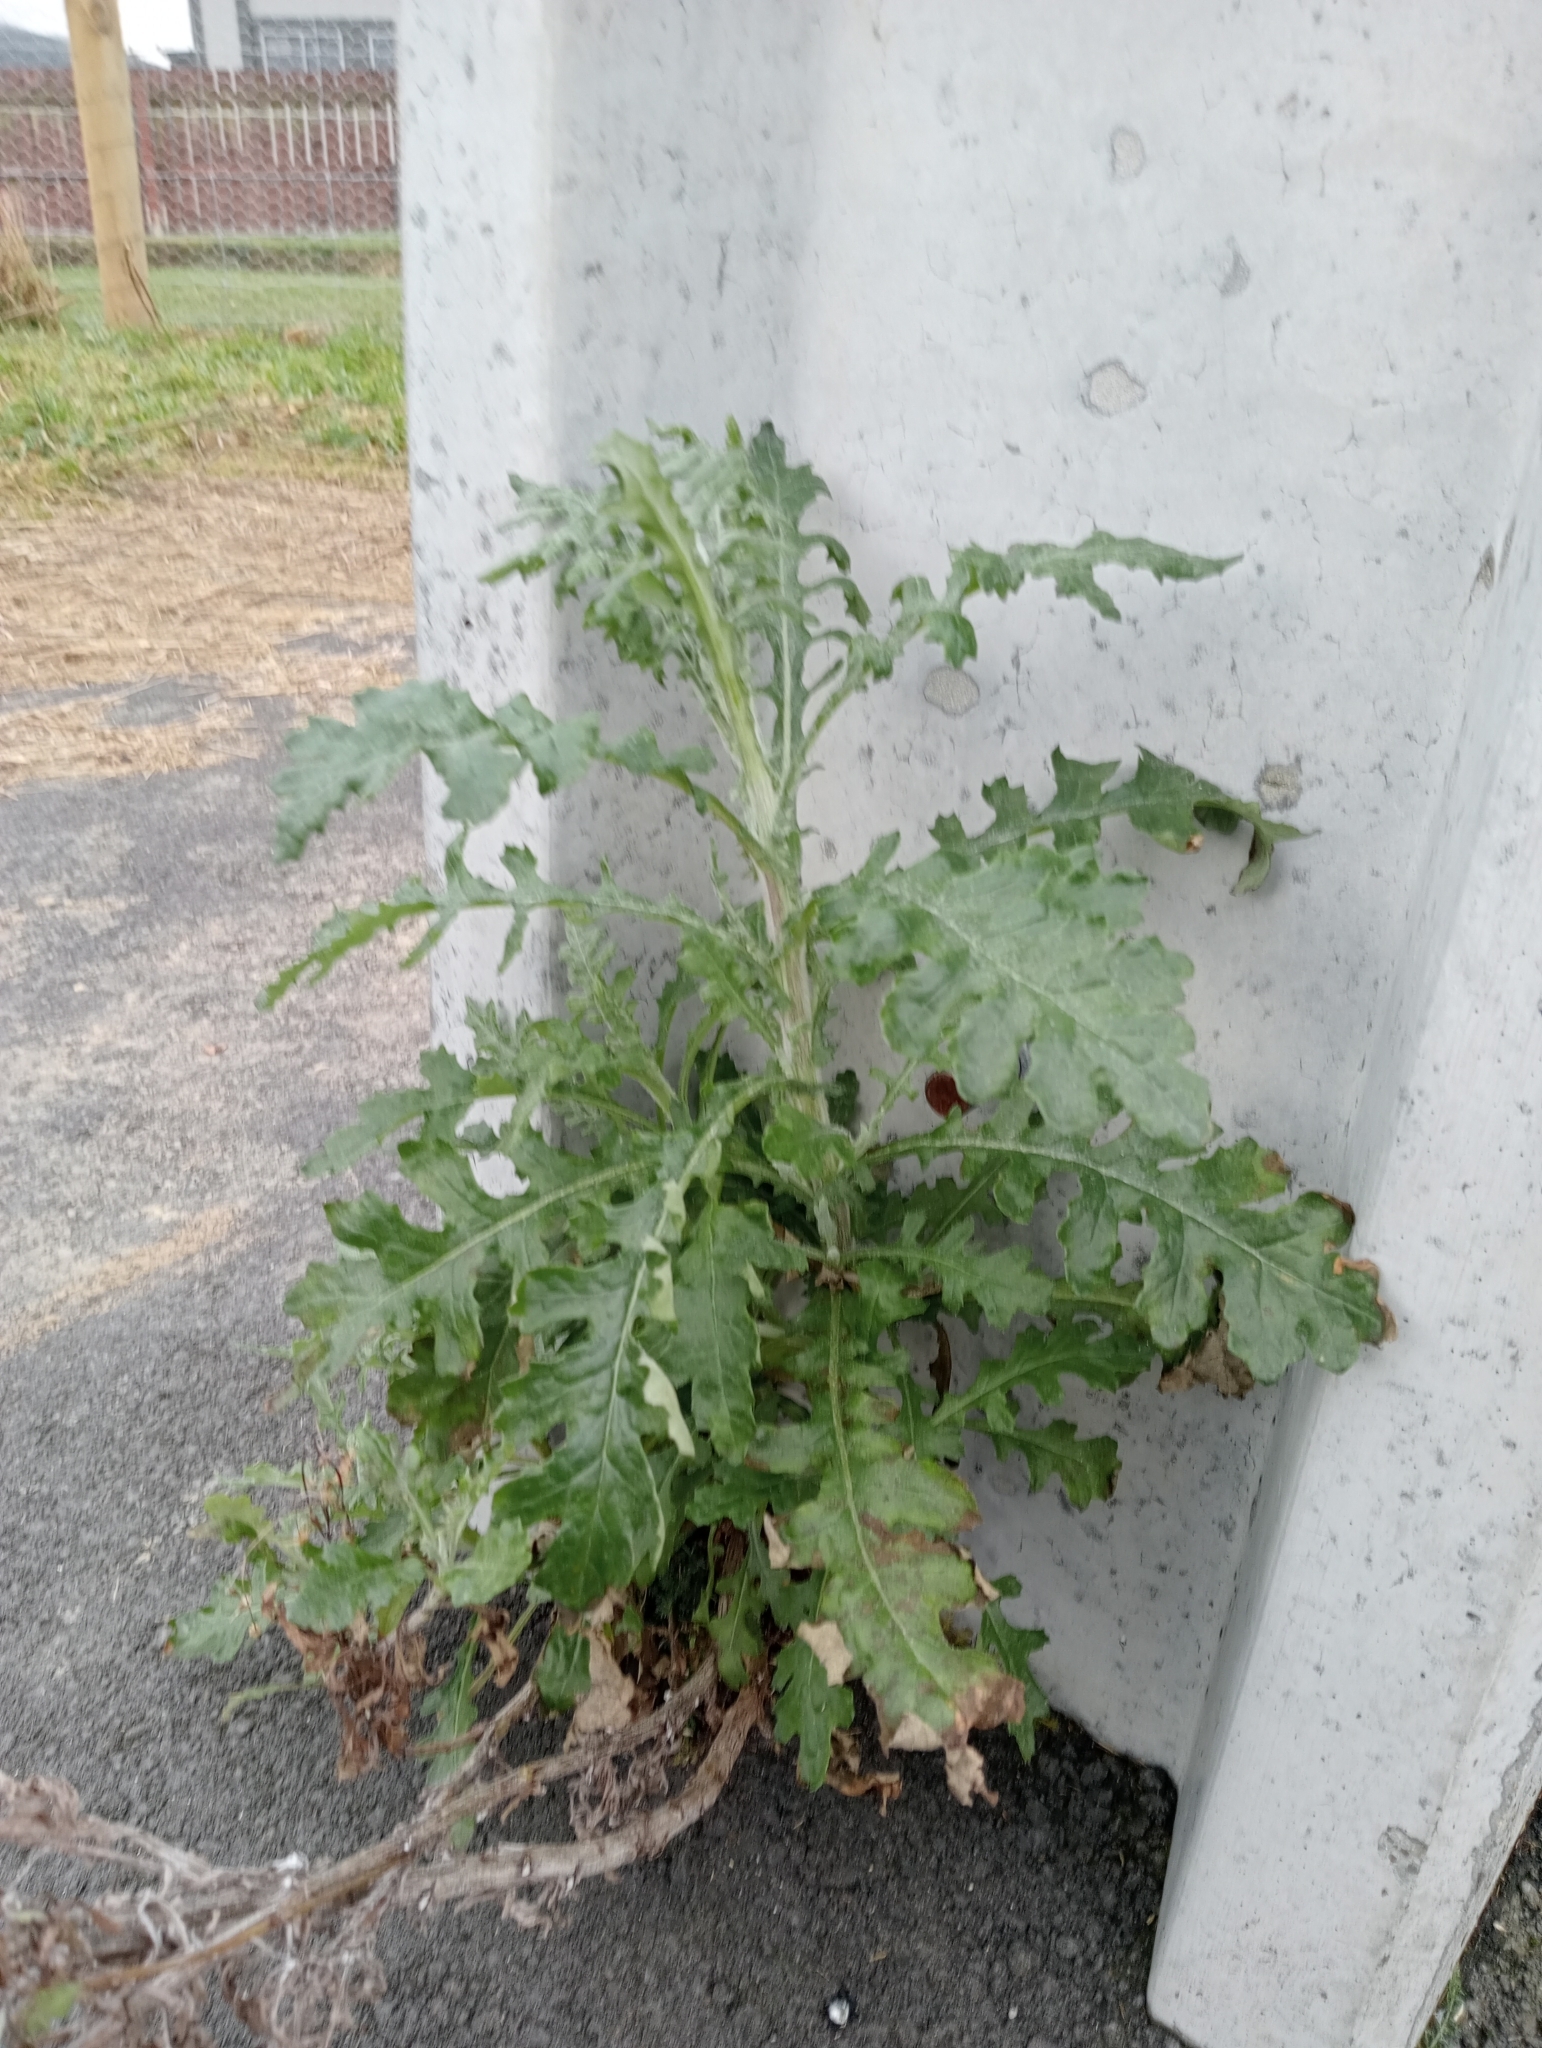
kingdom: Plantae
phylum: Tracheophyta
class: Magnoliopsida
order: Asterales
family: Asteraceae
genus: Senecio
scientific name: Senecio glomeratus
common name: Cutleaf burnweed
